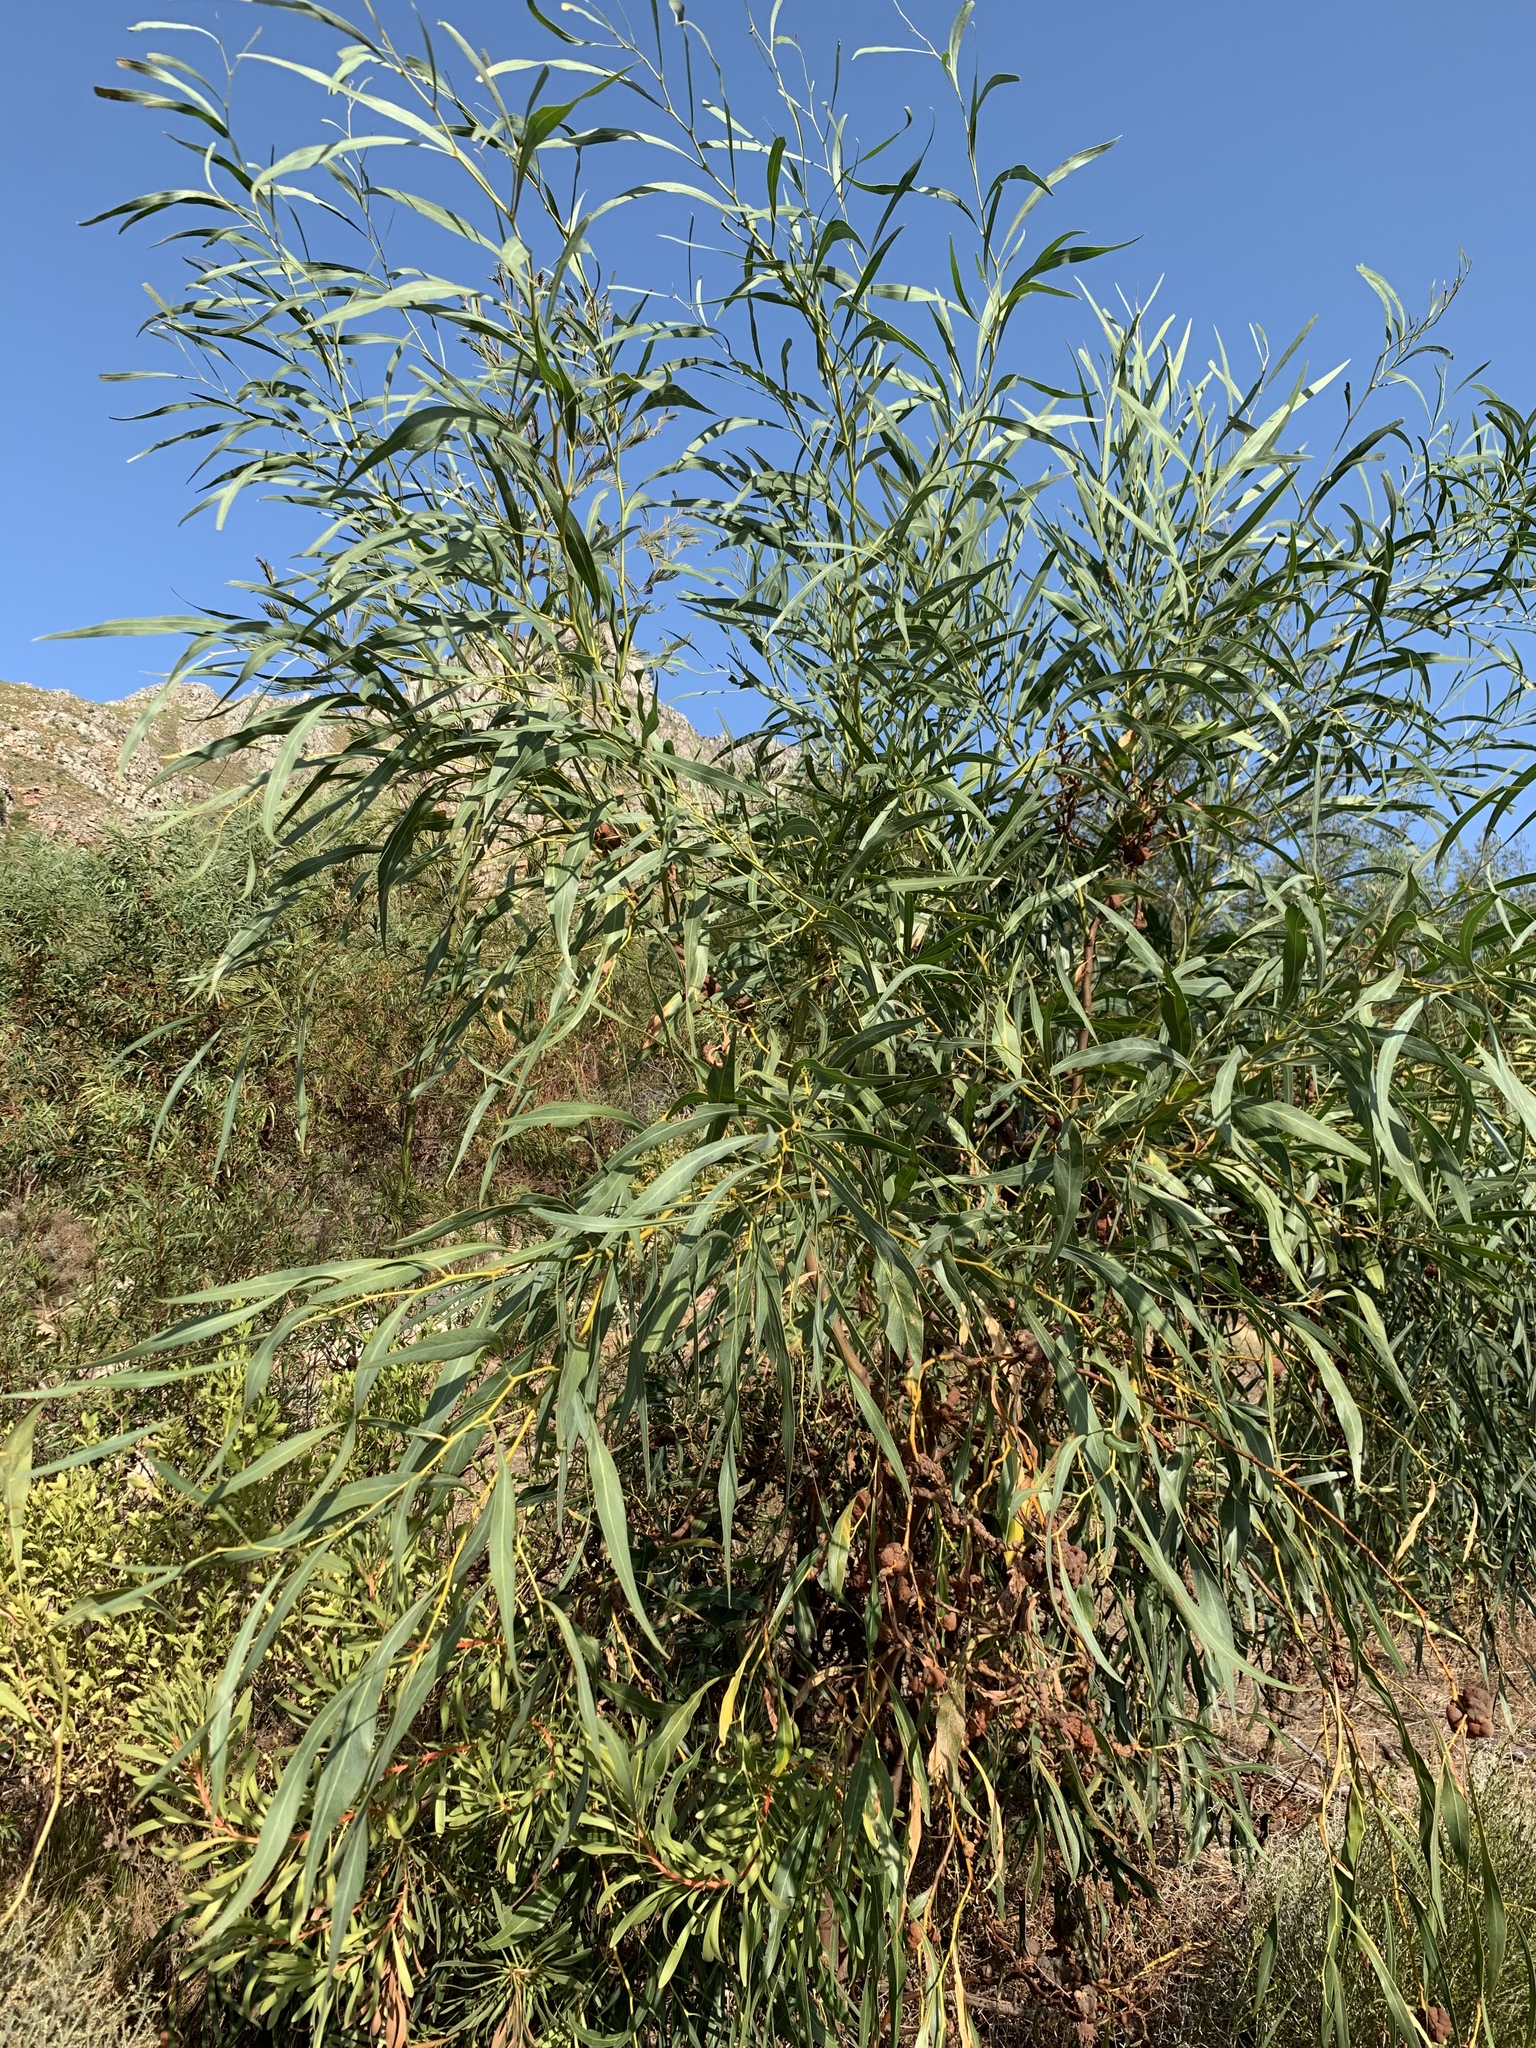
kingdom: Plantae
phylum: Tracheophyta
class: Magnoliopsida
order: Fabales
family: Fabaceae
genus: Acacia
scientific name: Acacia saligna
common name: Orange wattle
